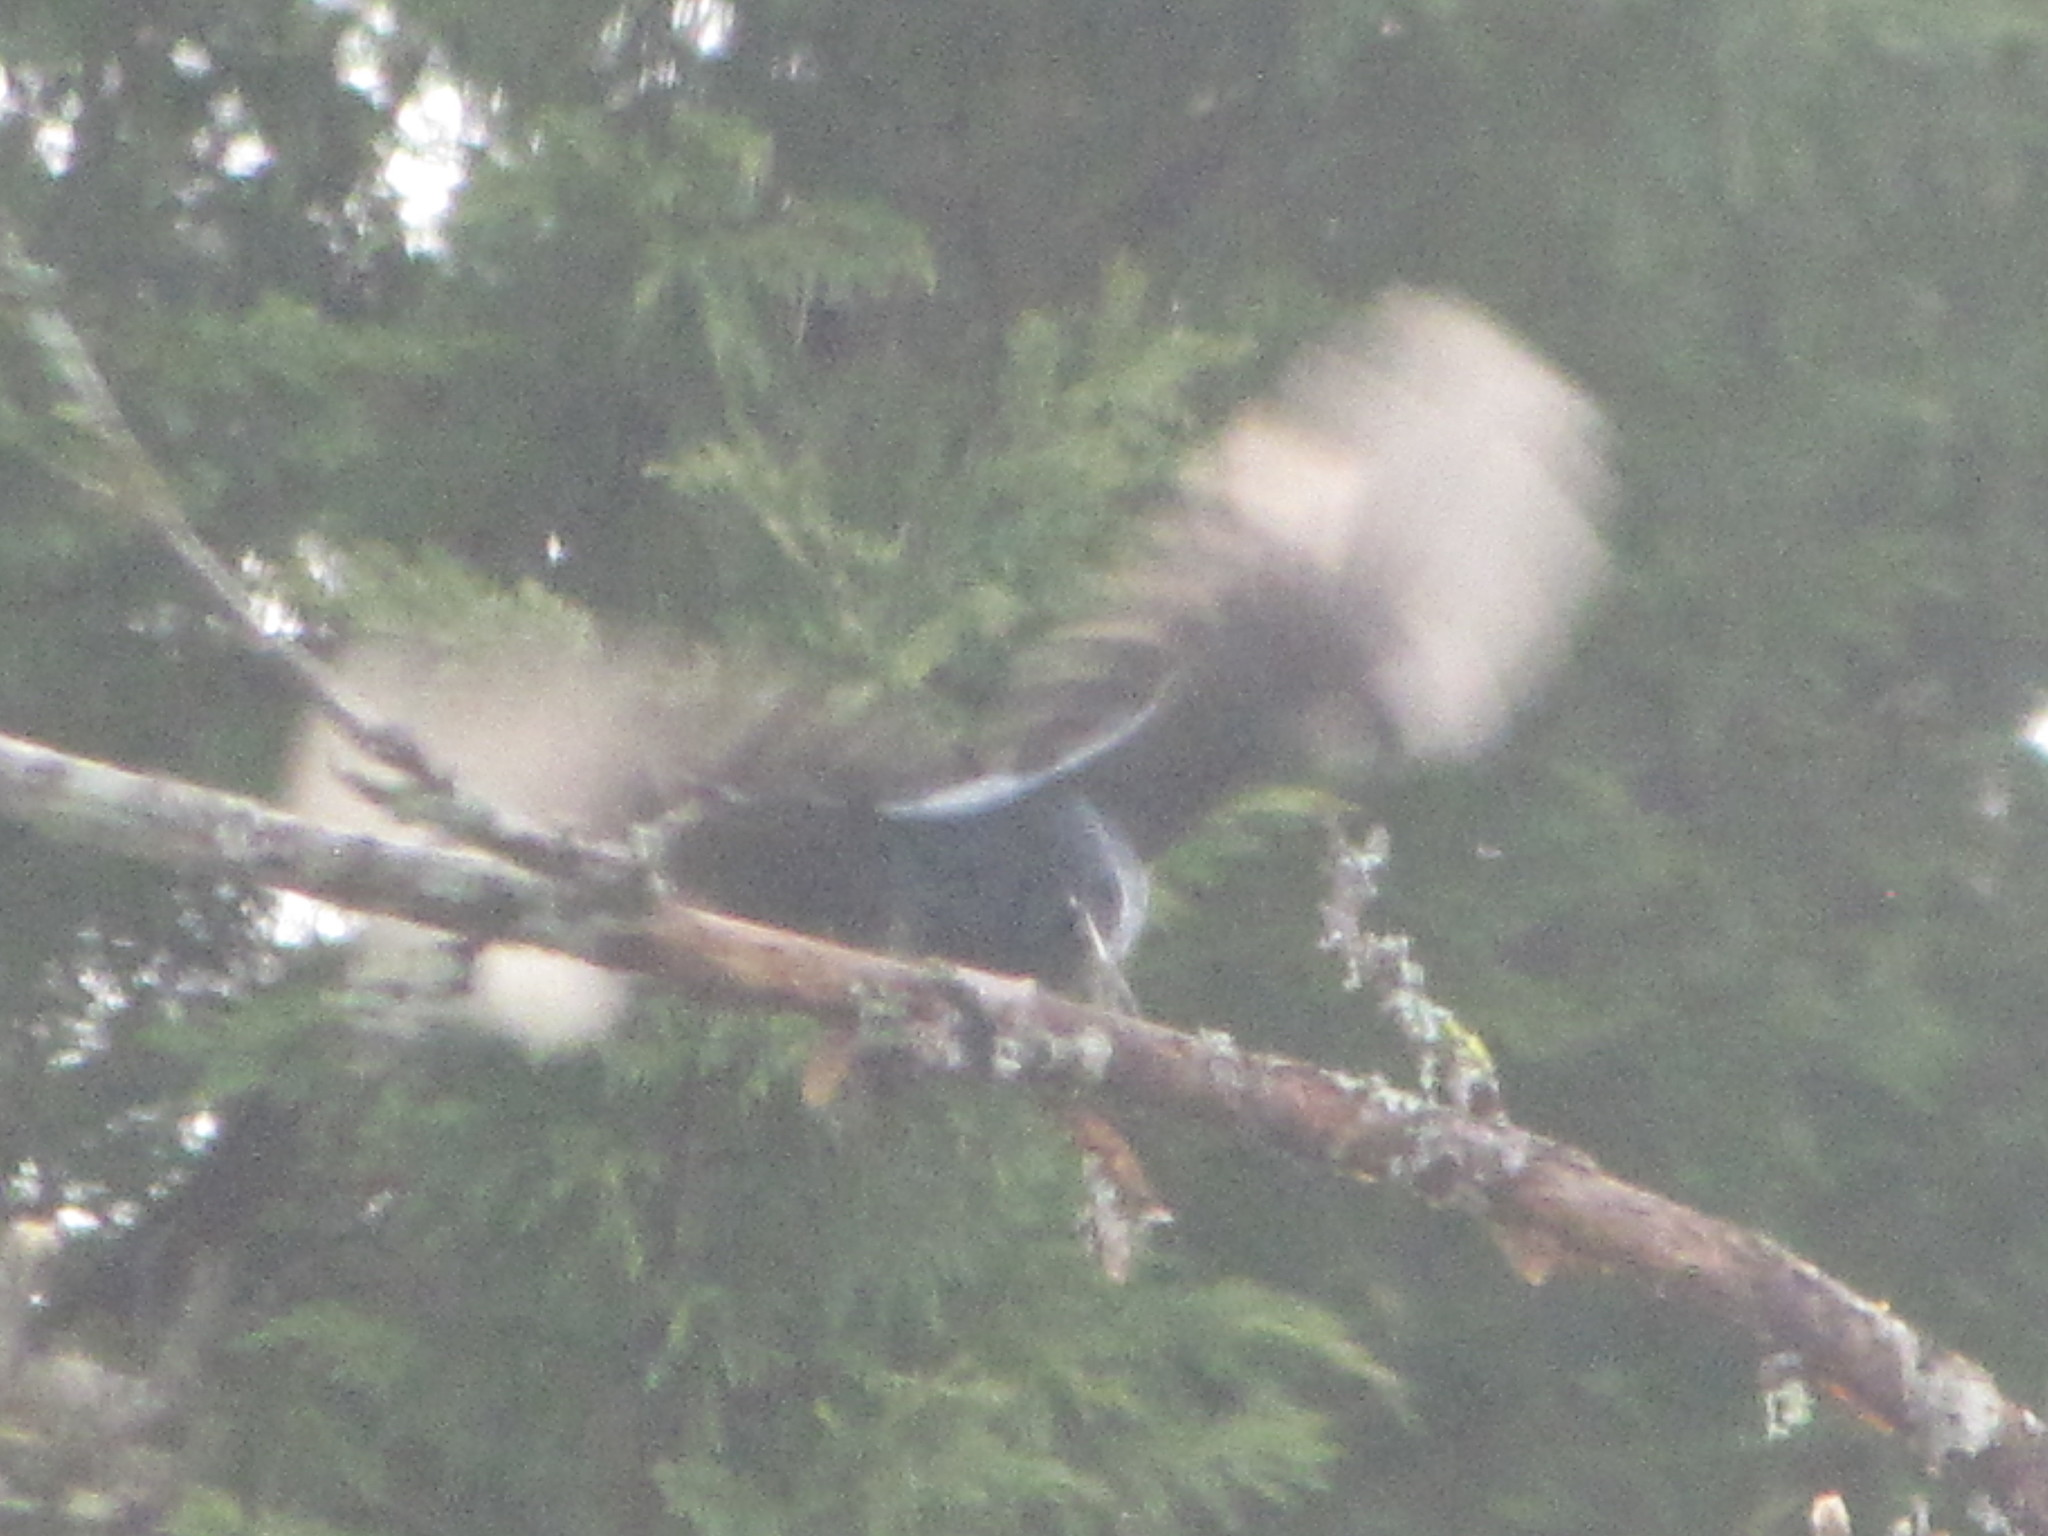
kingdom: Animalia
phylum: Chordata
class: Aves
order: Passeriformes
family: Corvidae
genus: Cyanocitta
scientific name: Cyanocitta stelleri
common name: Steller's jay
